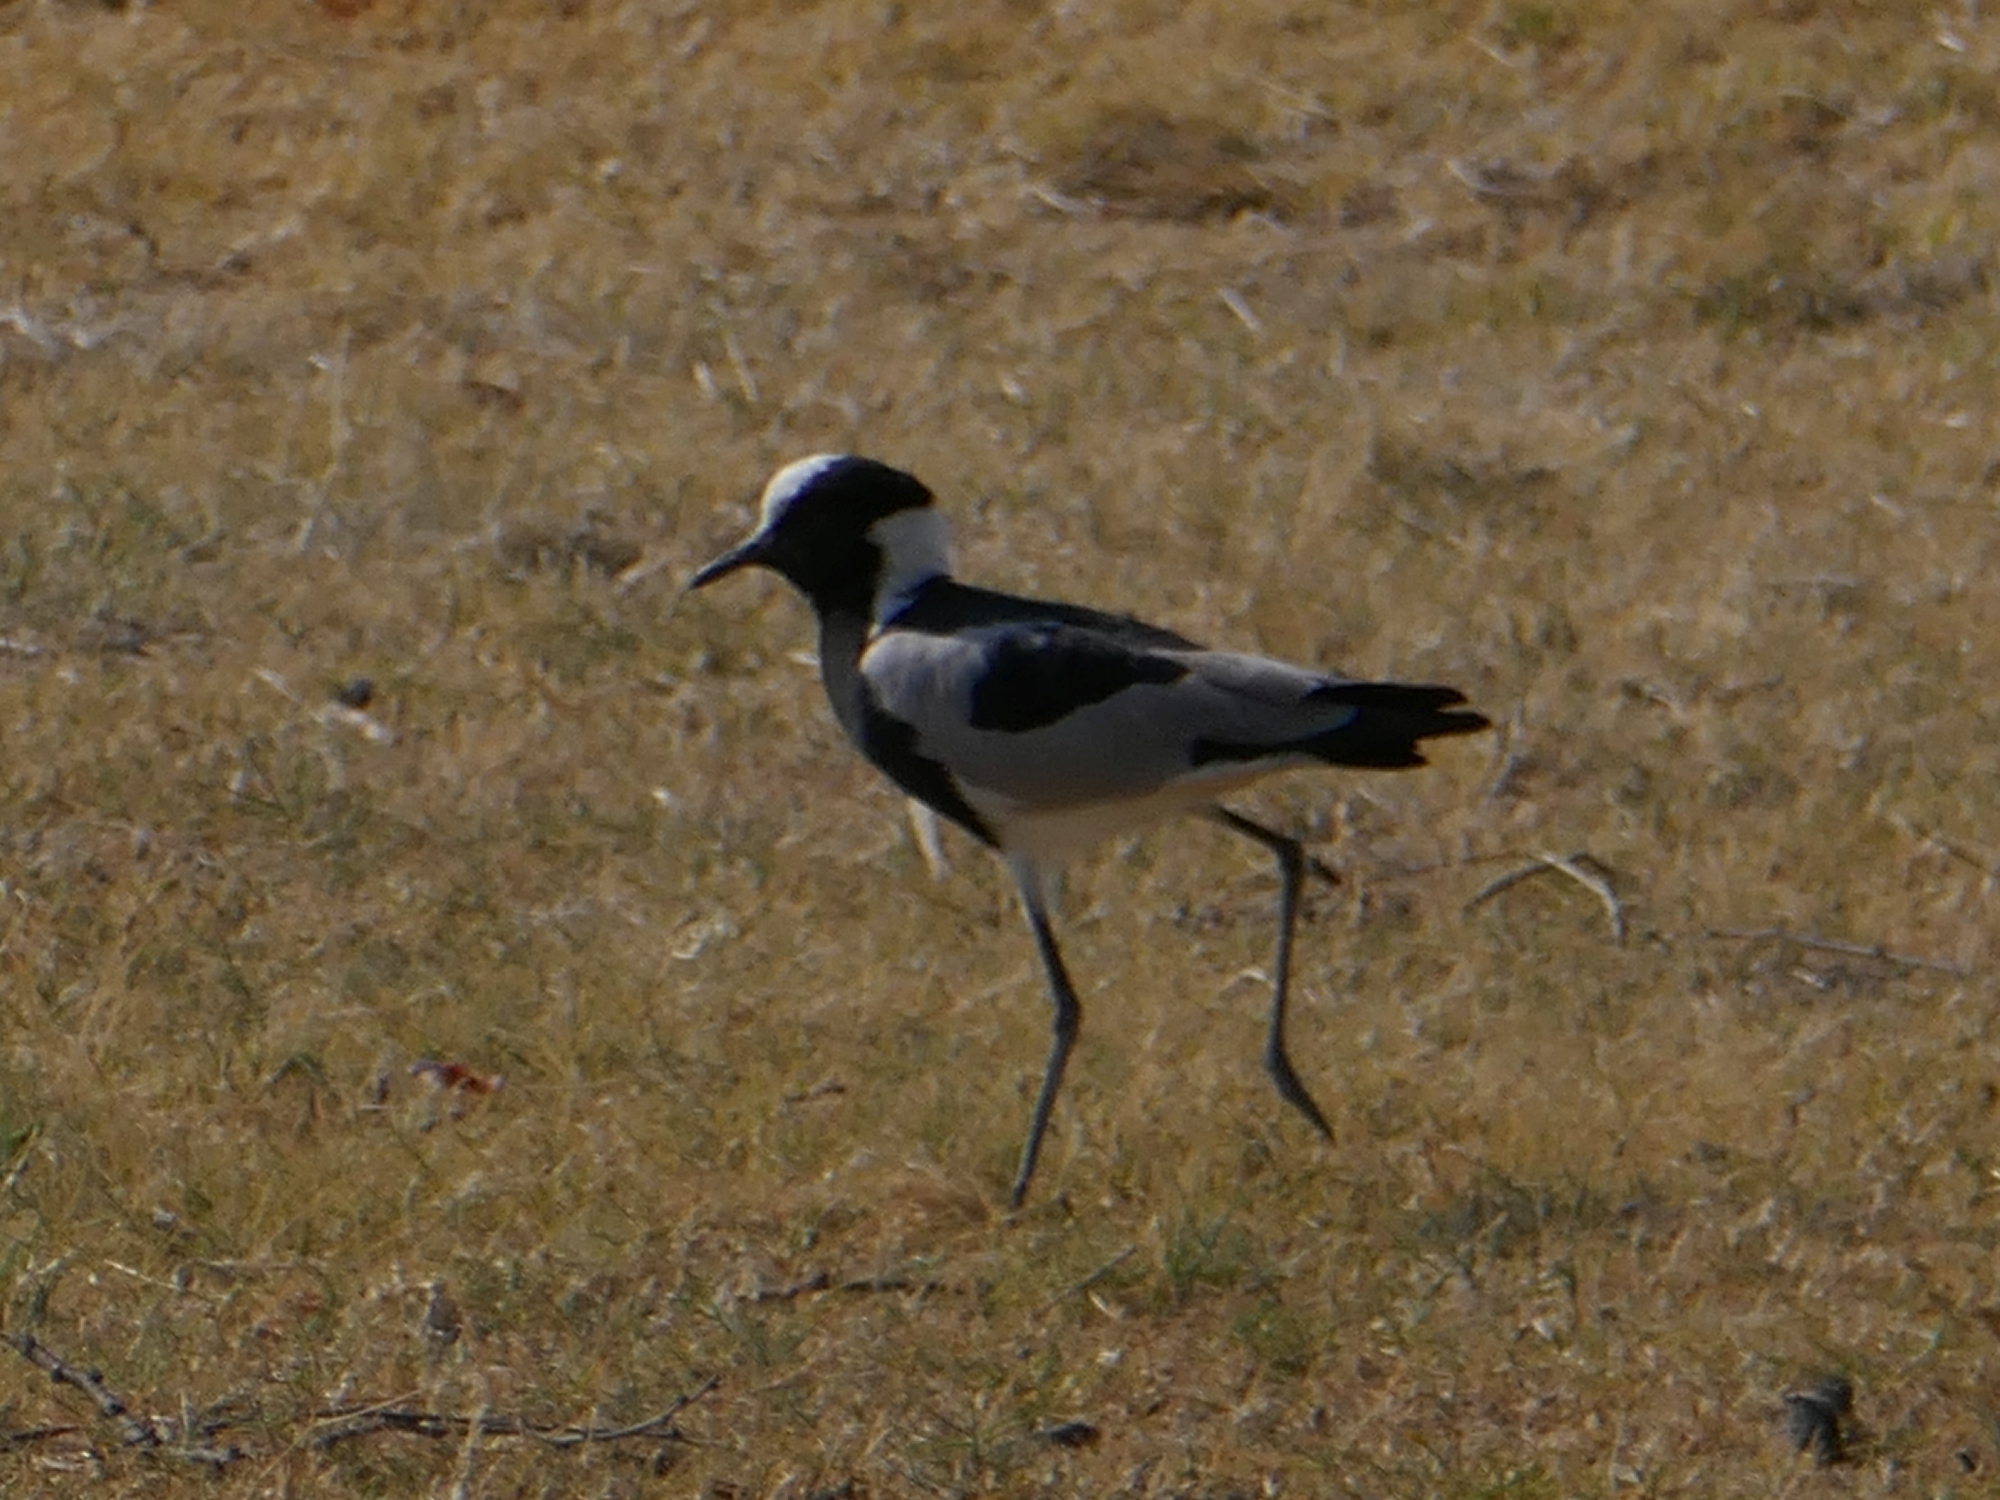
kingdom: Animalia
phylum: Chordata
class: Aves
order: Charadriiformes
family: Charadriidae
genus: Vanellus
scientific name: Vanellus armatus
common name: Blacksmith lapwing
